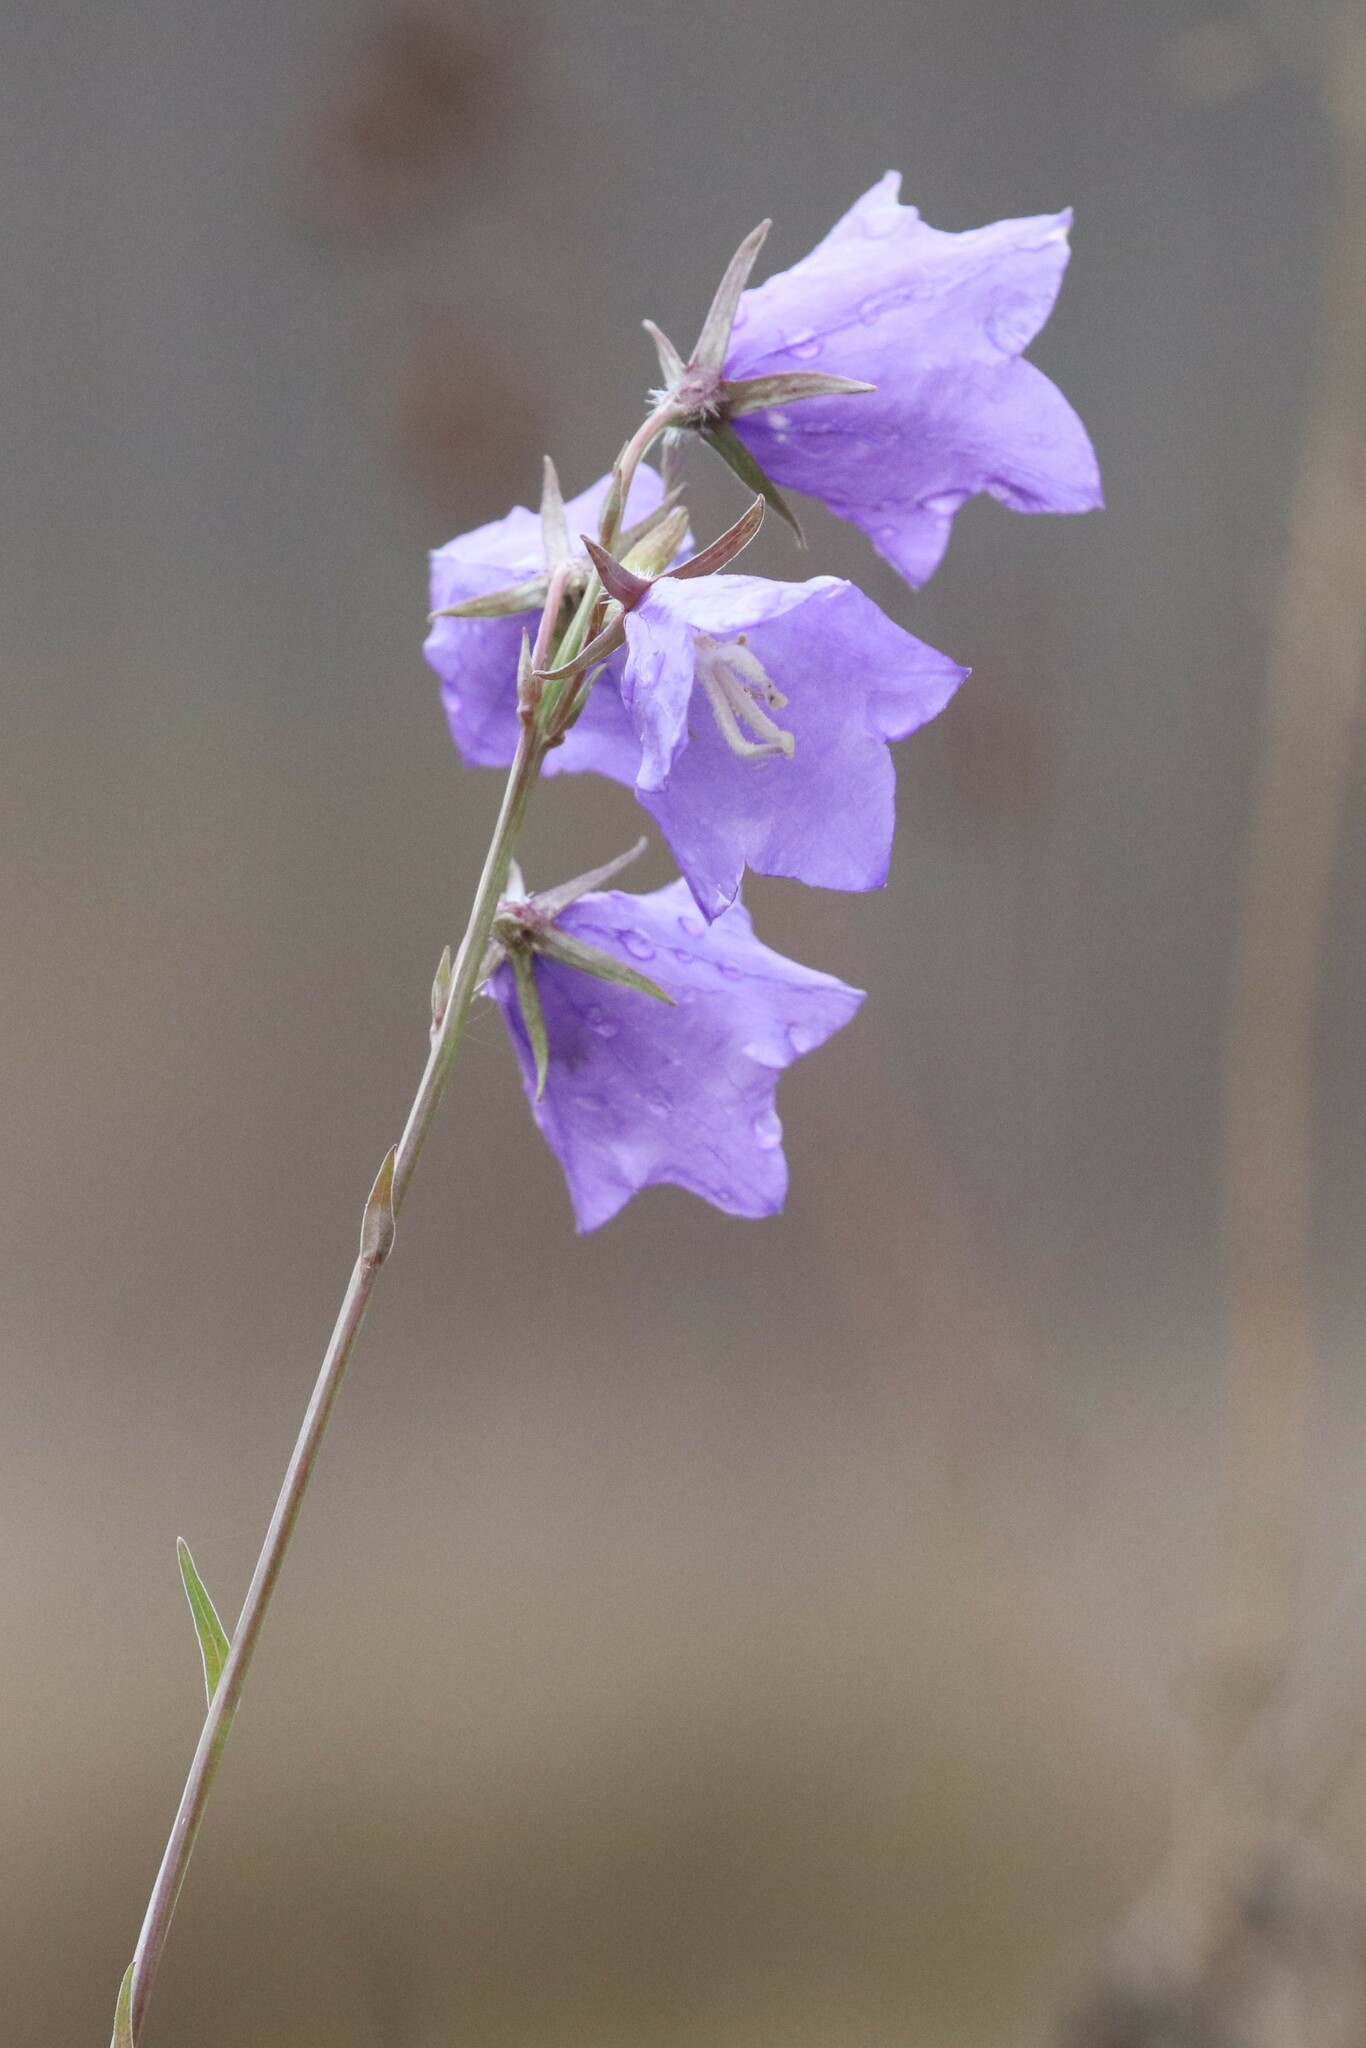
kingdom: Plantae
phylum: Tracheophyta
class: Magnoliopsida
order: Asterales
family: Campanulaceae
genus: Campanula
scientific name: Campanula persicifolia
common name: Peach-leaved bellflower
